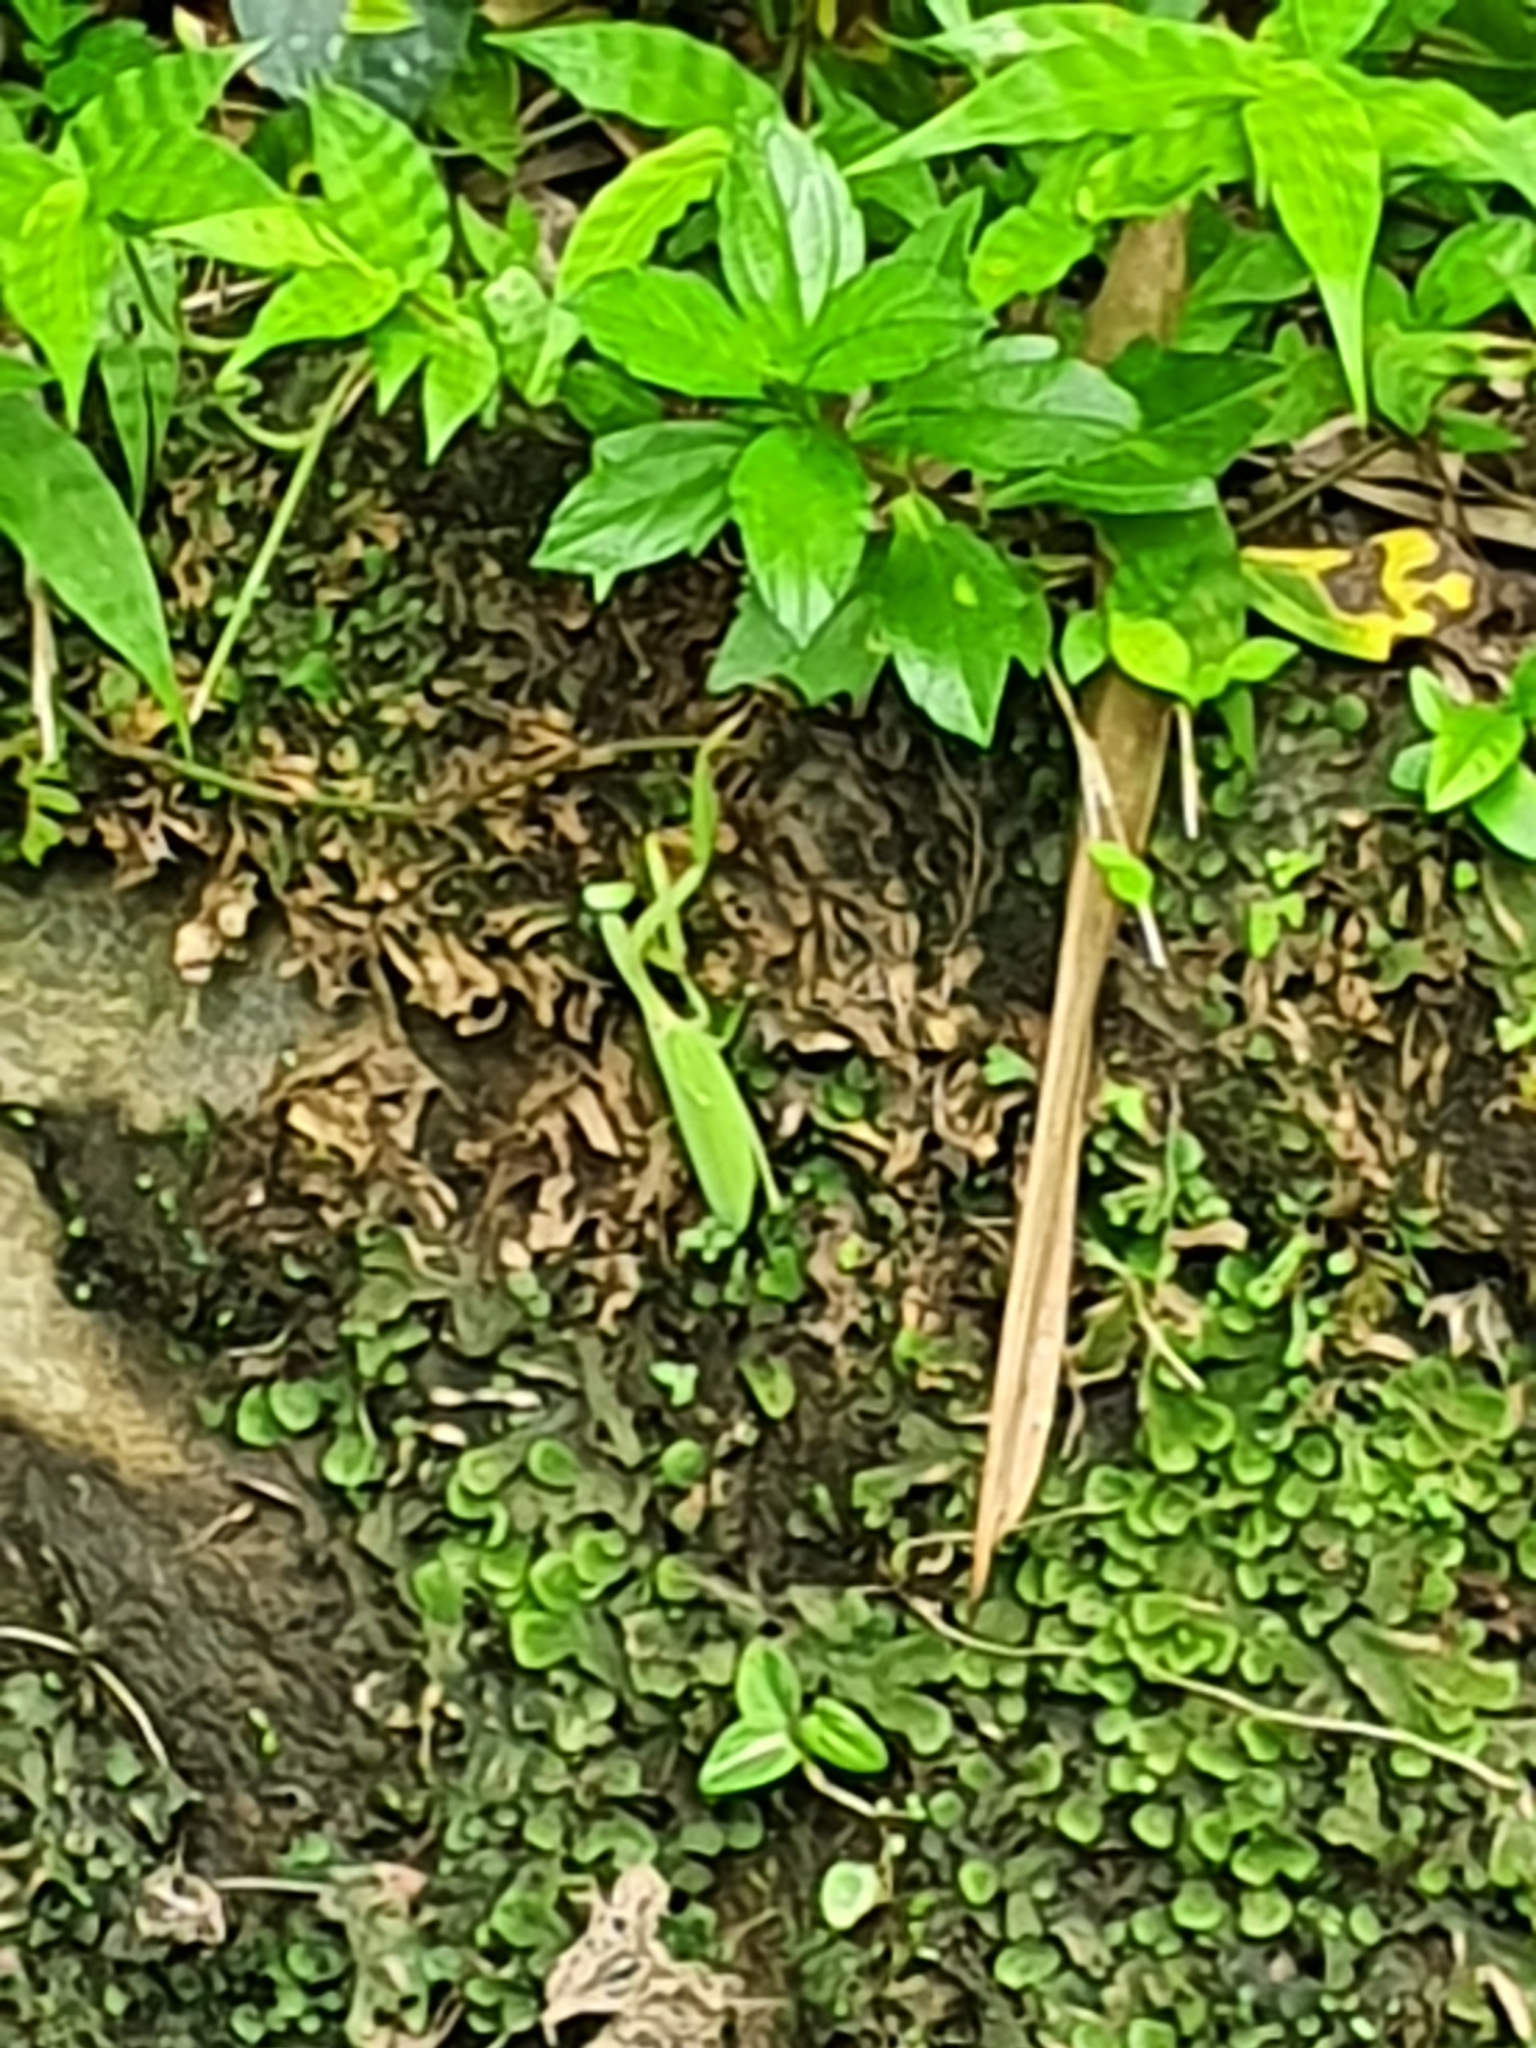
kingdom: Animalia
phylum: Arthropoda
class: Insecta
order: Mantodea
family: Mantidae
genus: Hierodula
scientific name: Hierodula quinquepatellata
